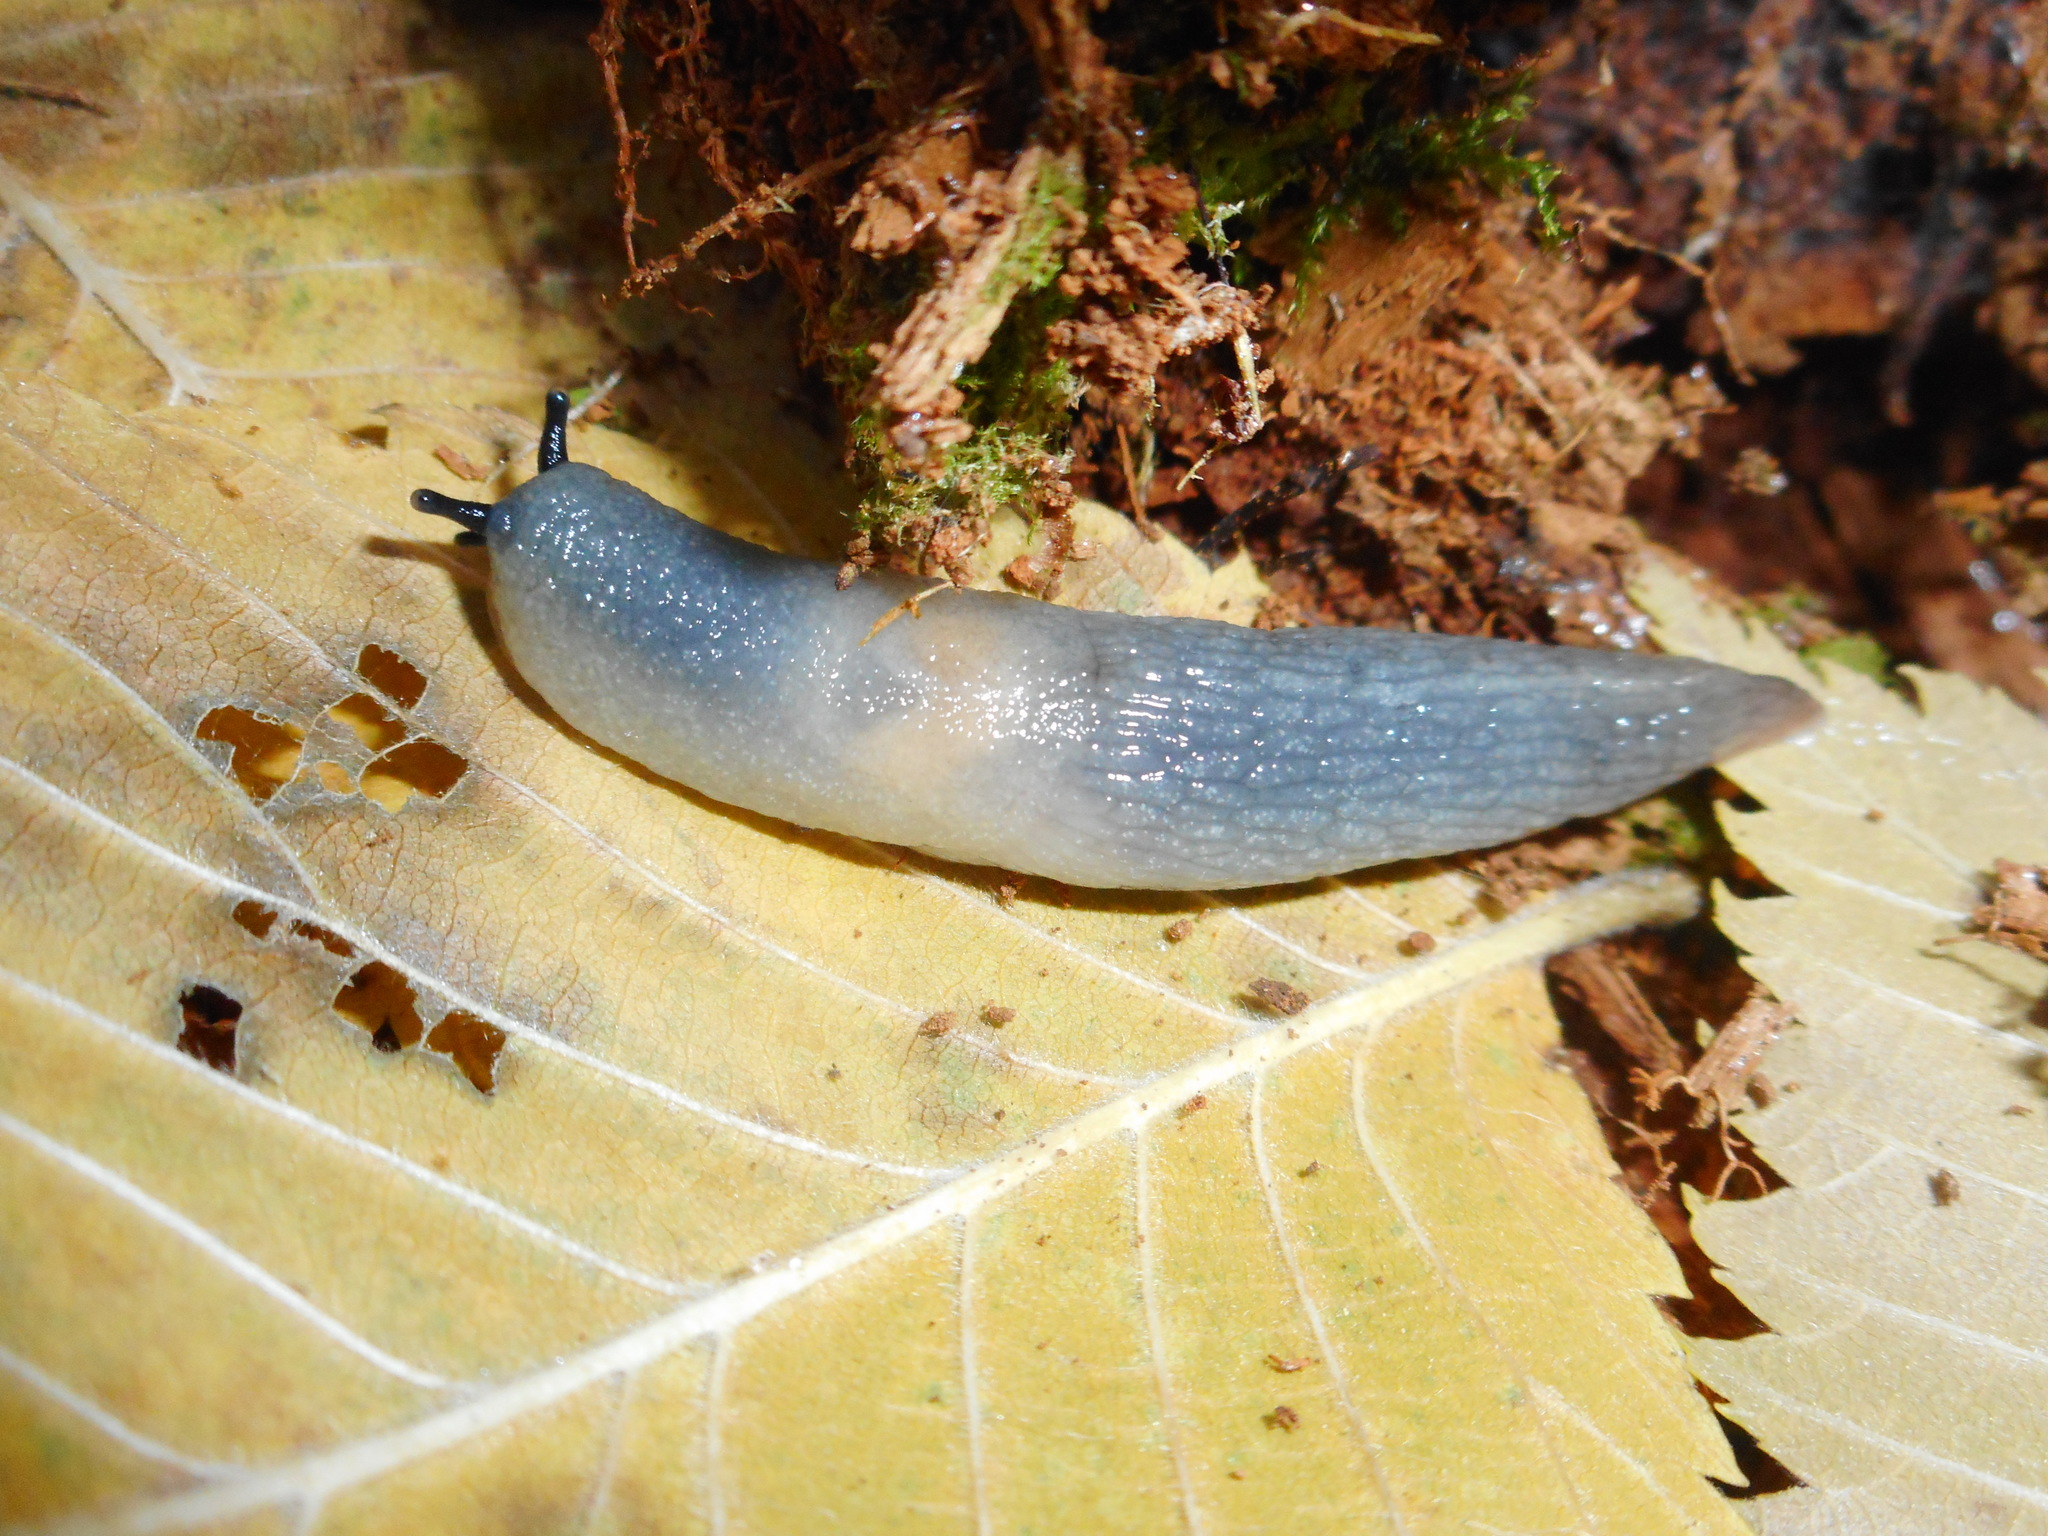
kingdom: Animalia
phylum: Mollusca
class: Gastropoda
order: Stylommatophora
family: Agriolimacidae
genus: Krynickillus
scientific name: Krynickillus melanocephalus
